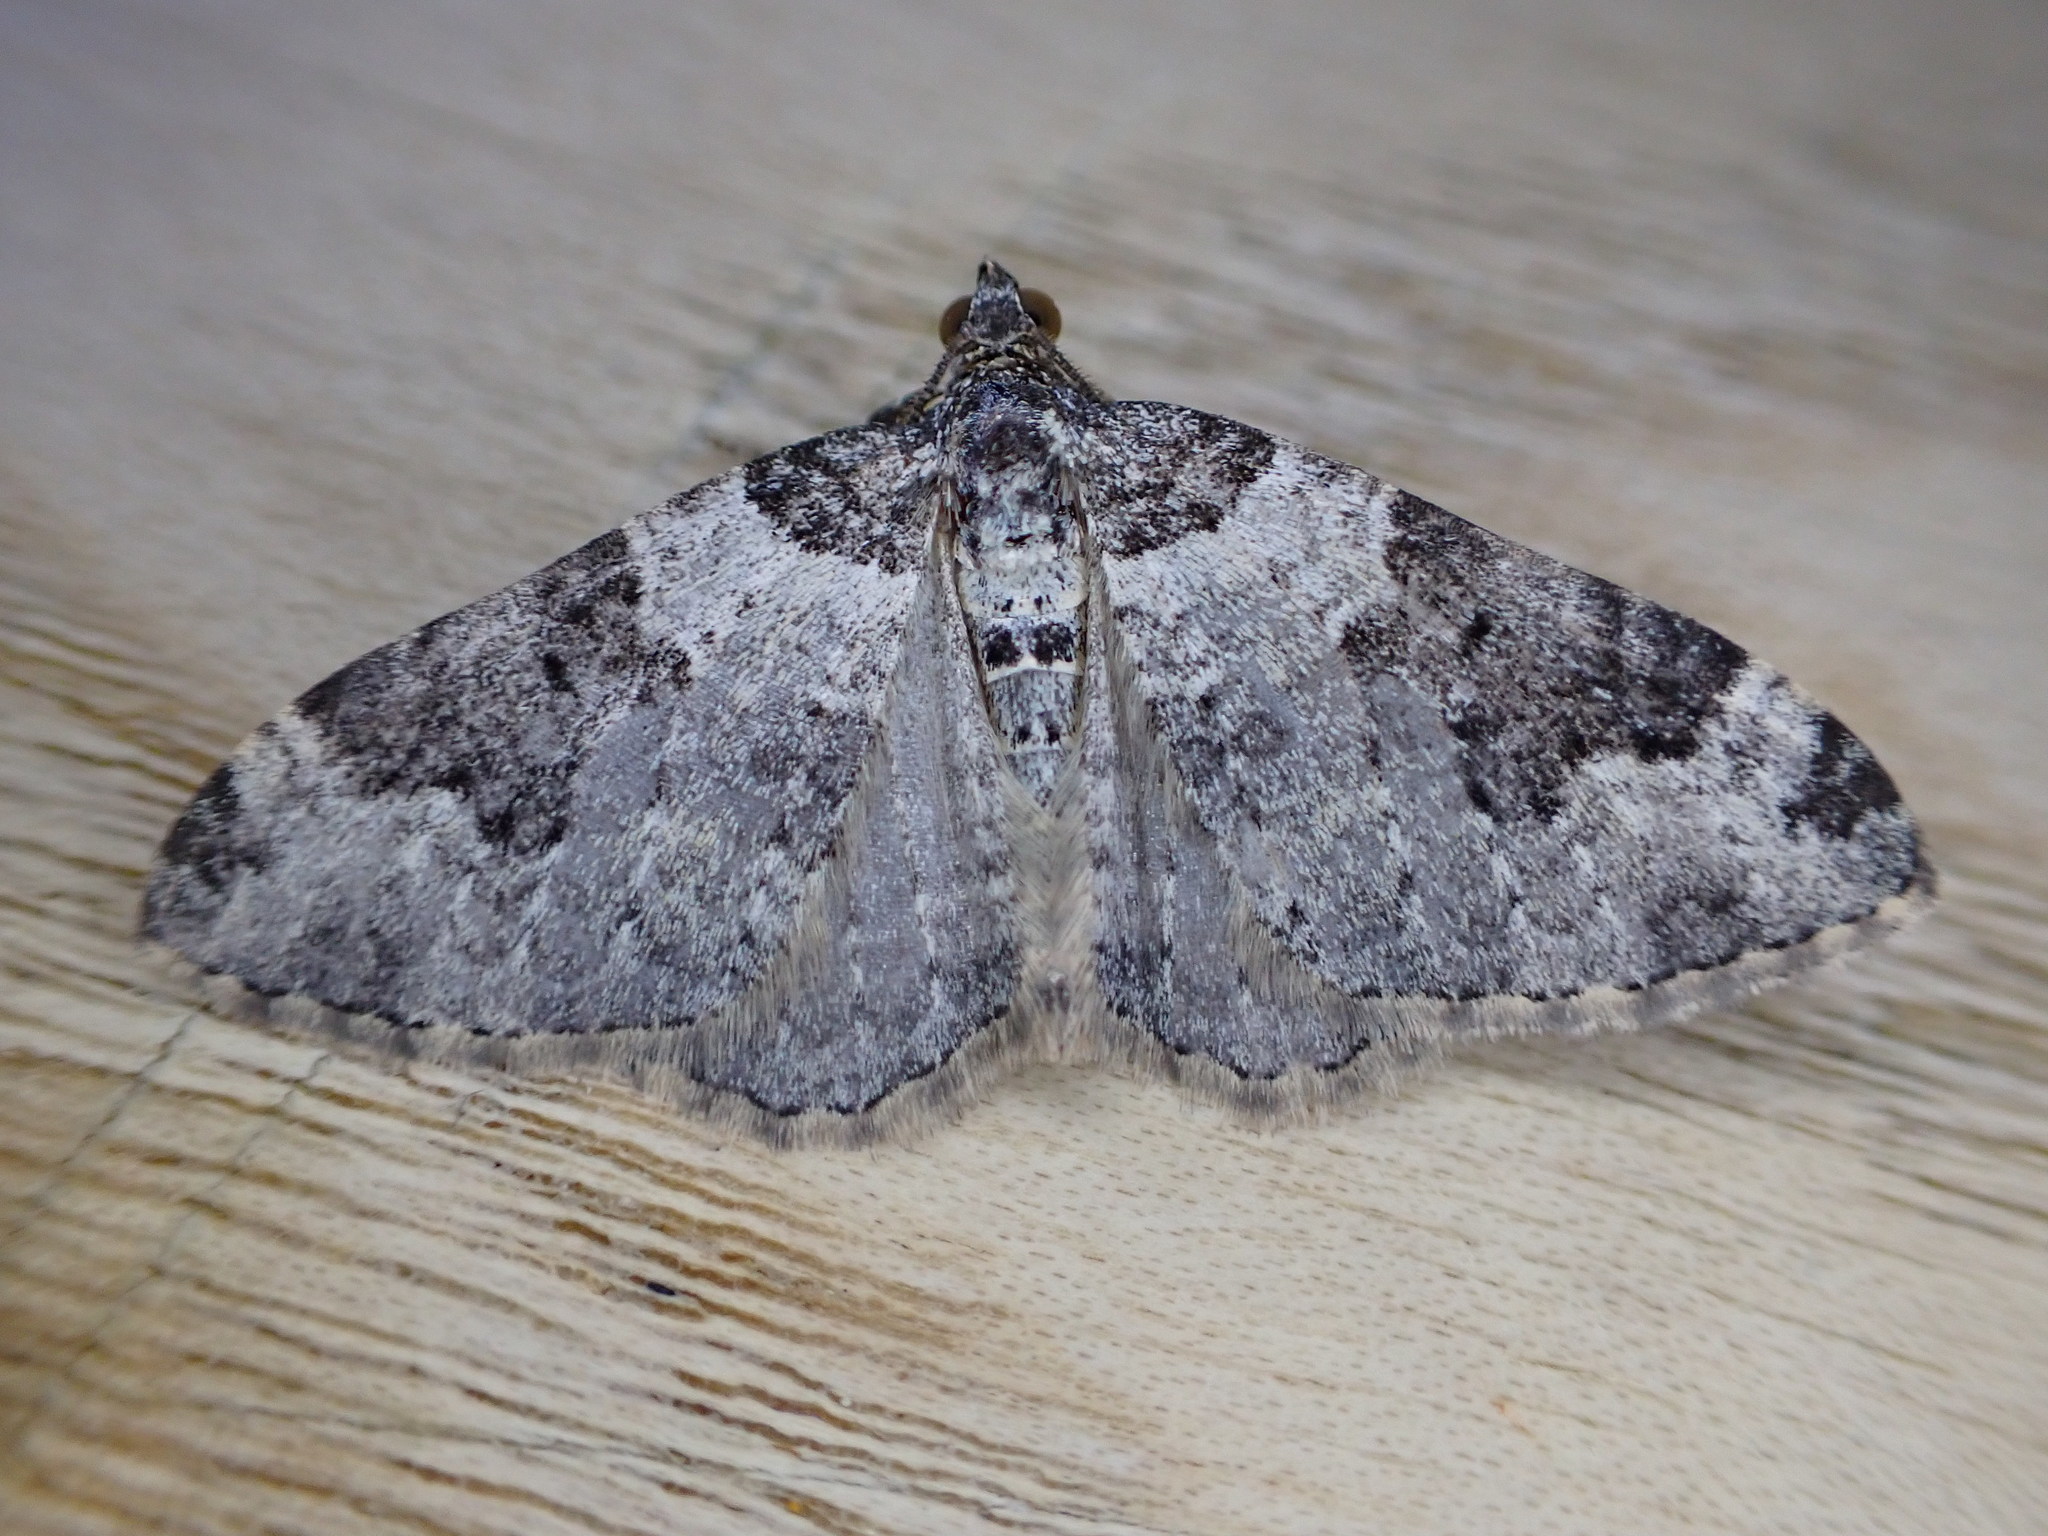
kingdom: Animalia
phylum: Arthropoda
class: Insecta
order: Lepidoptera
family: Geometridae
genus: Xanthorhoe
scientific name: Xanthorhoe fluctuata
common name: Garden carpet
